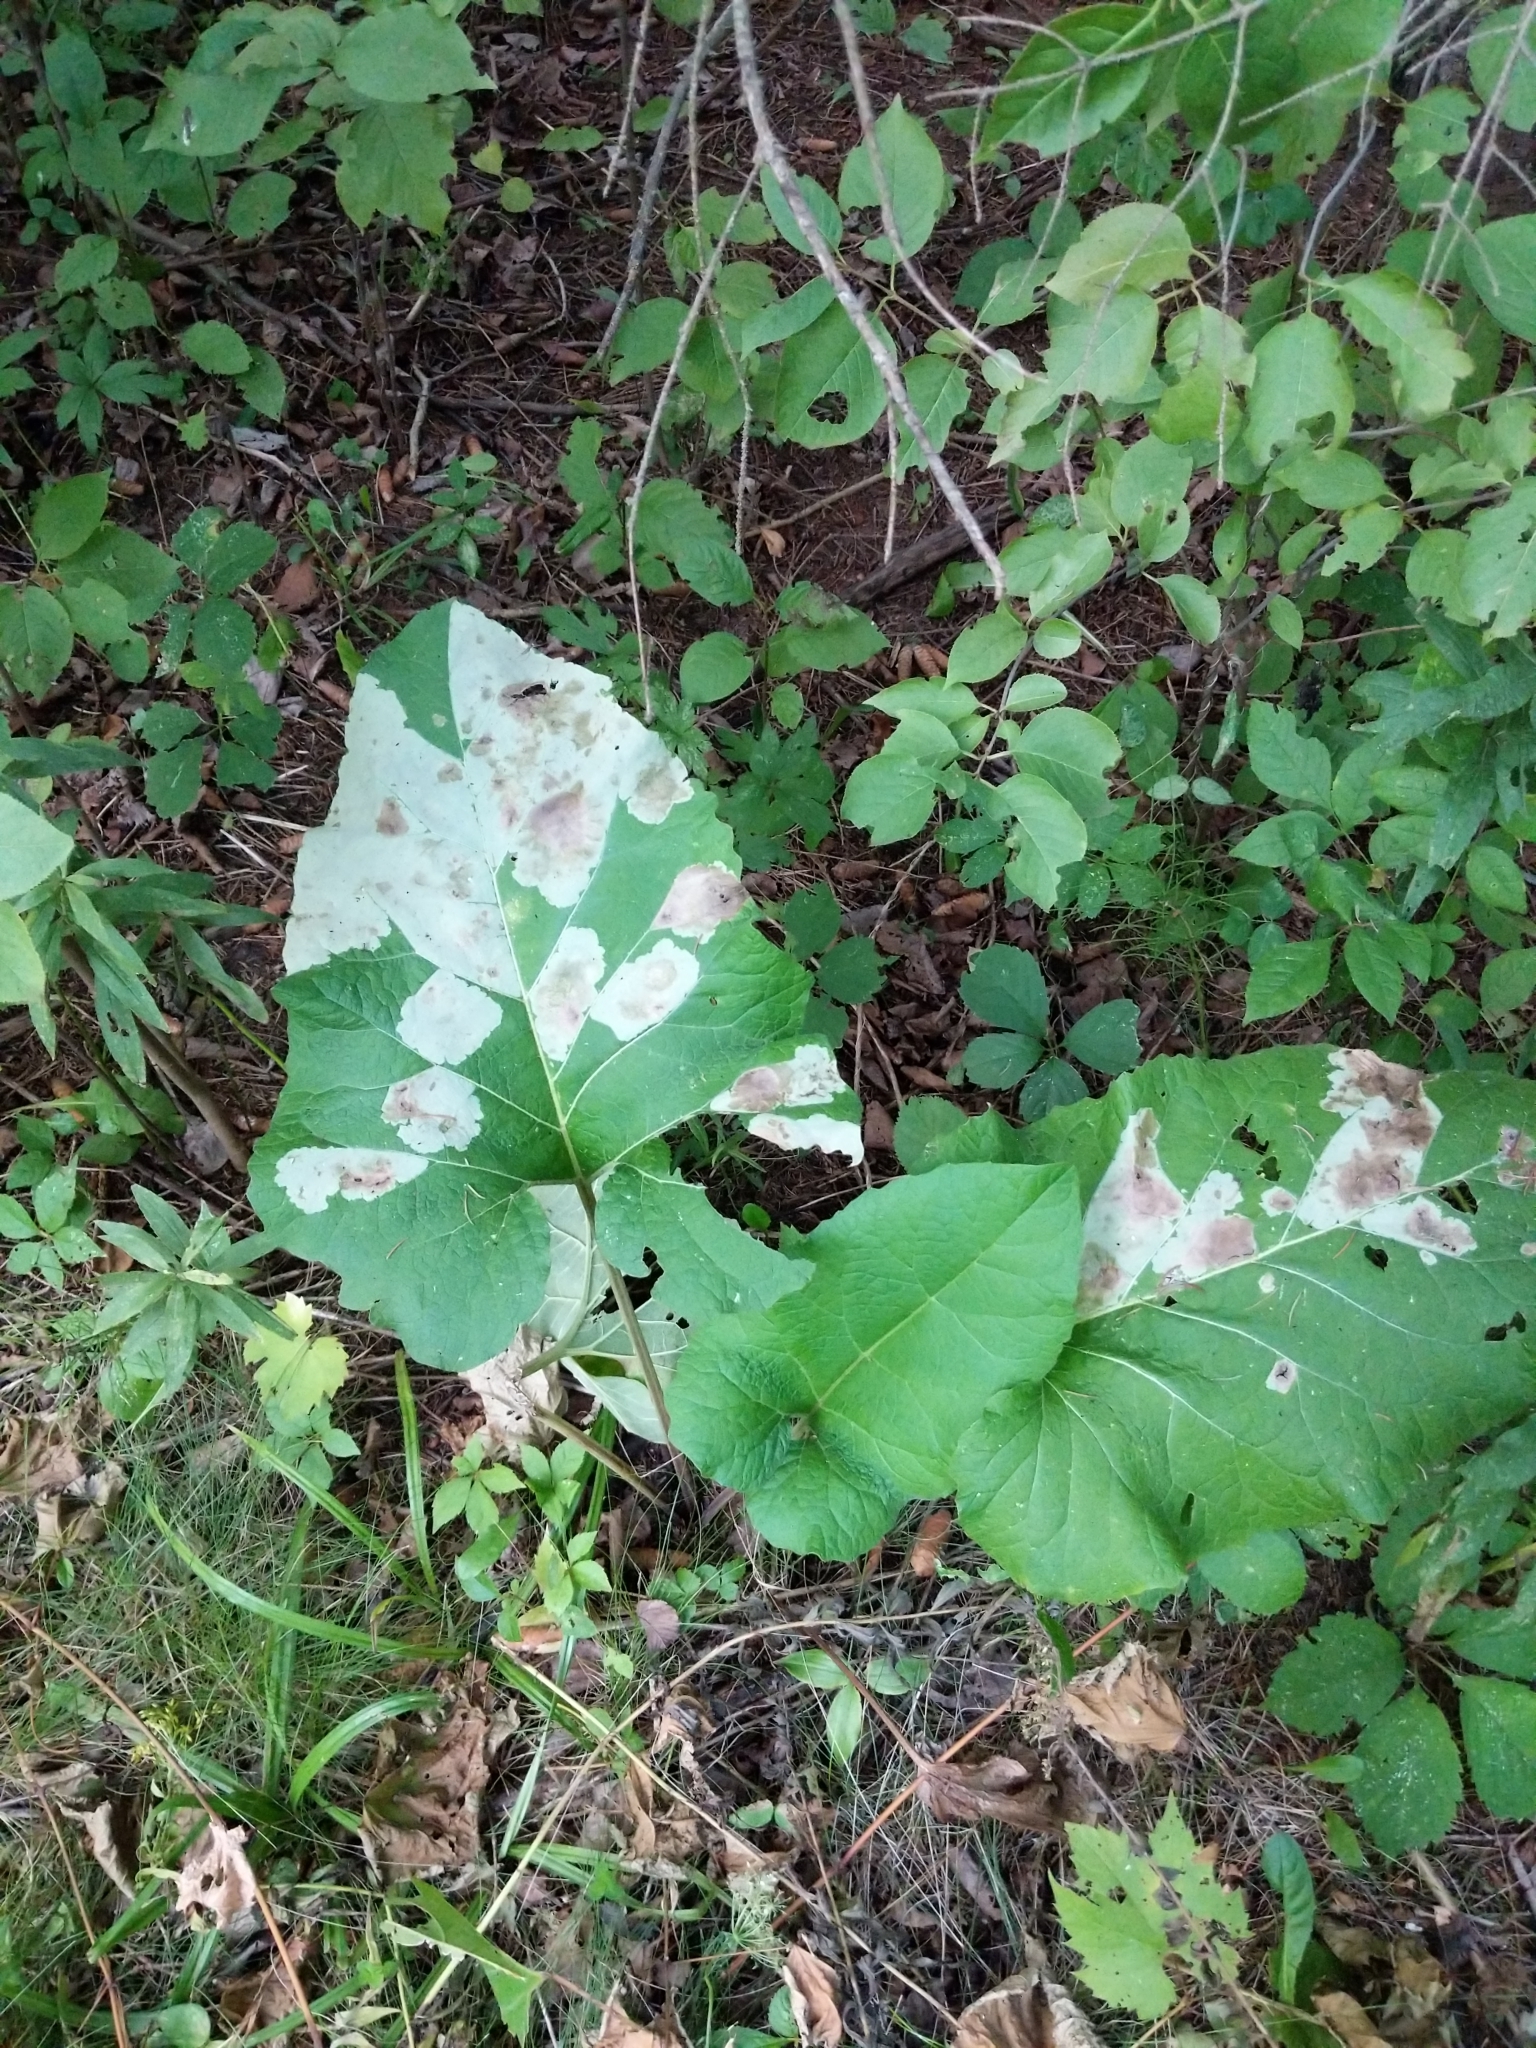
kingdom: Animalia
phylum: Arthropoda
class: Insecta
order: Diptera
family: Agromyzidae
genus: Calycomyza
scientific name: Calycomyza flavinotum
